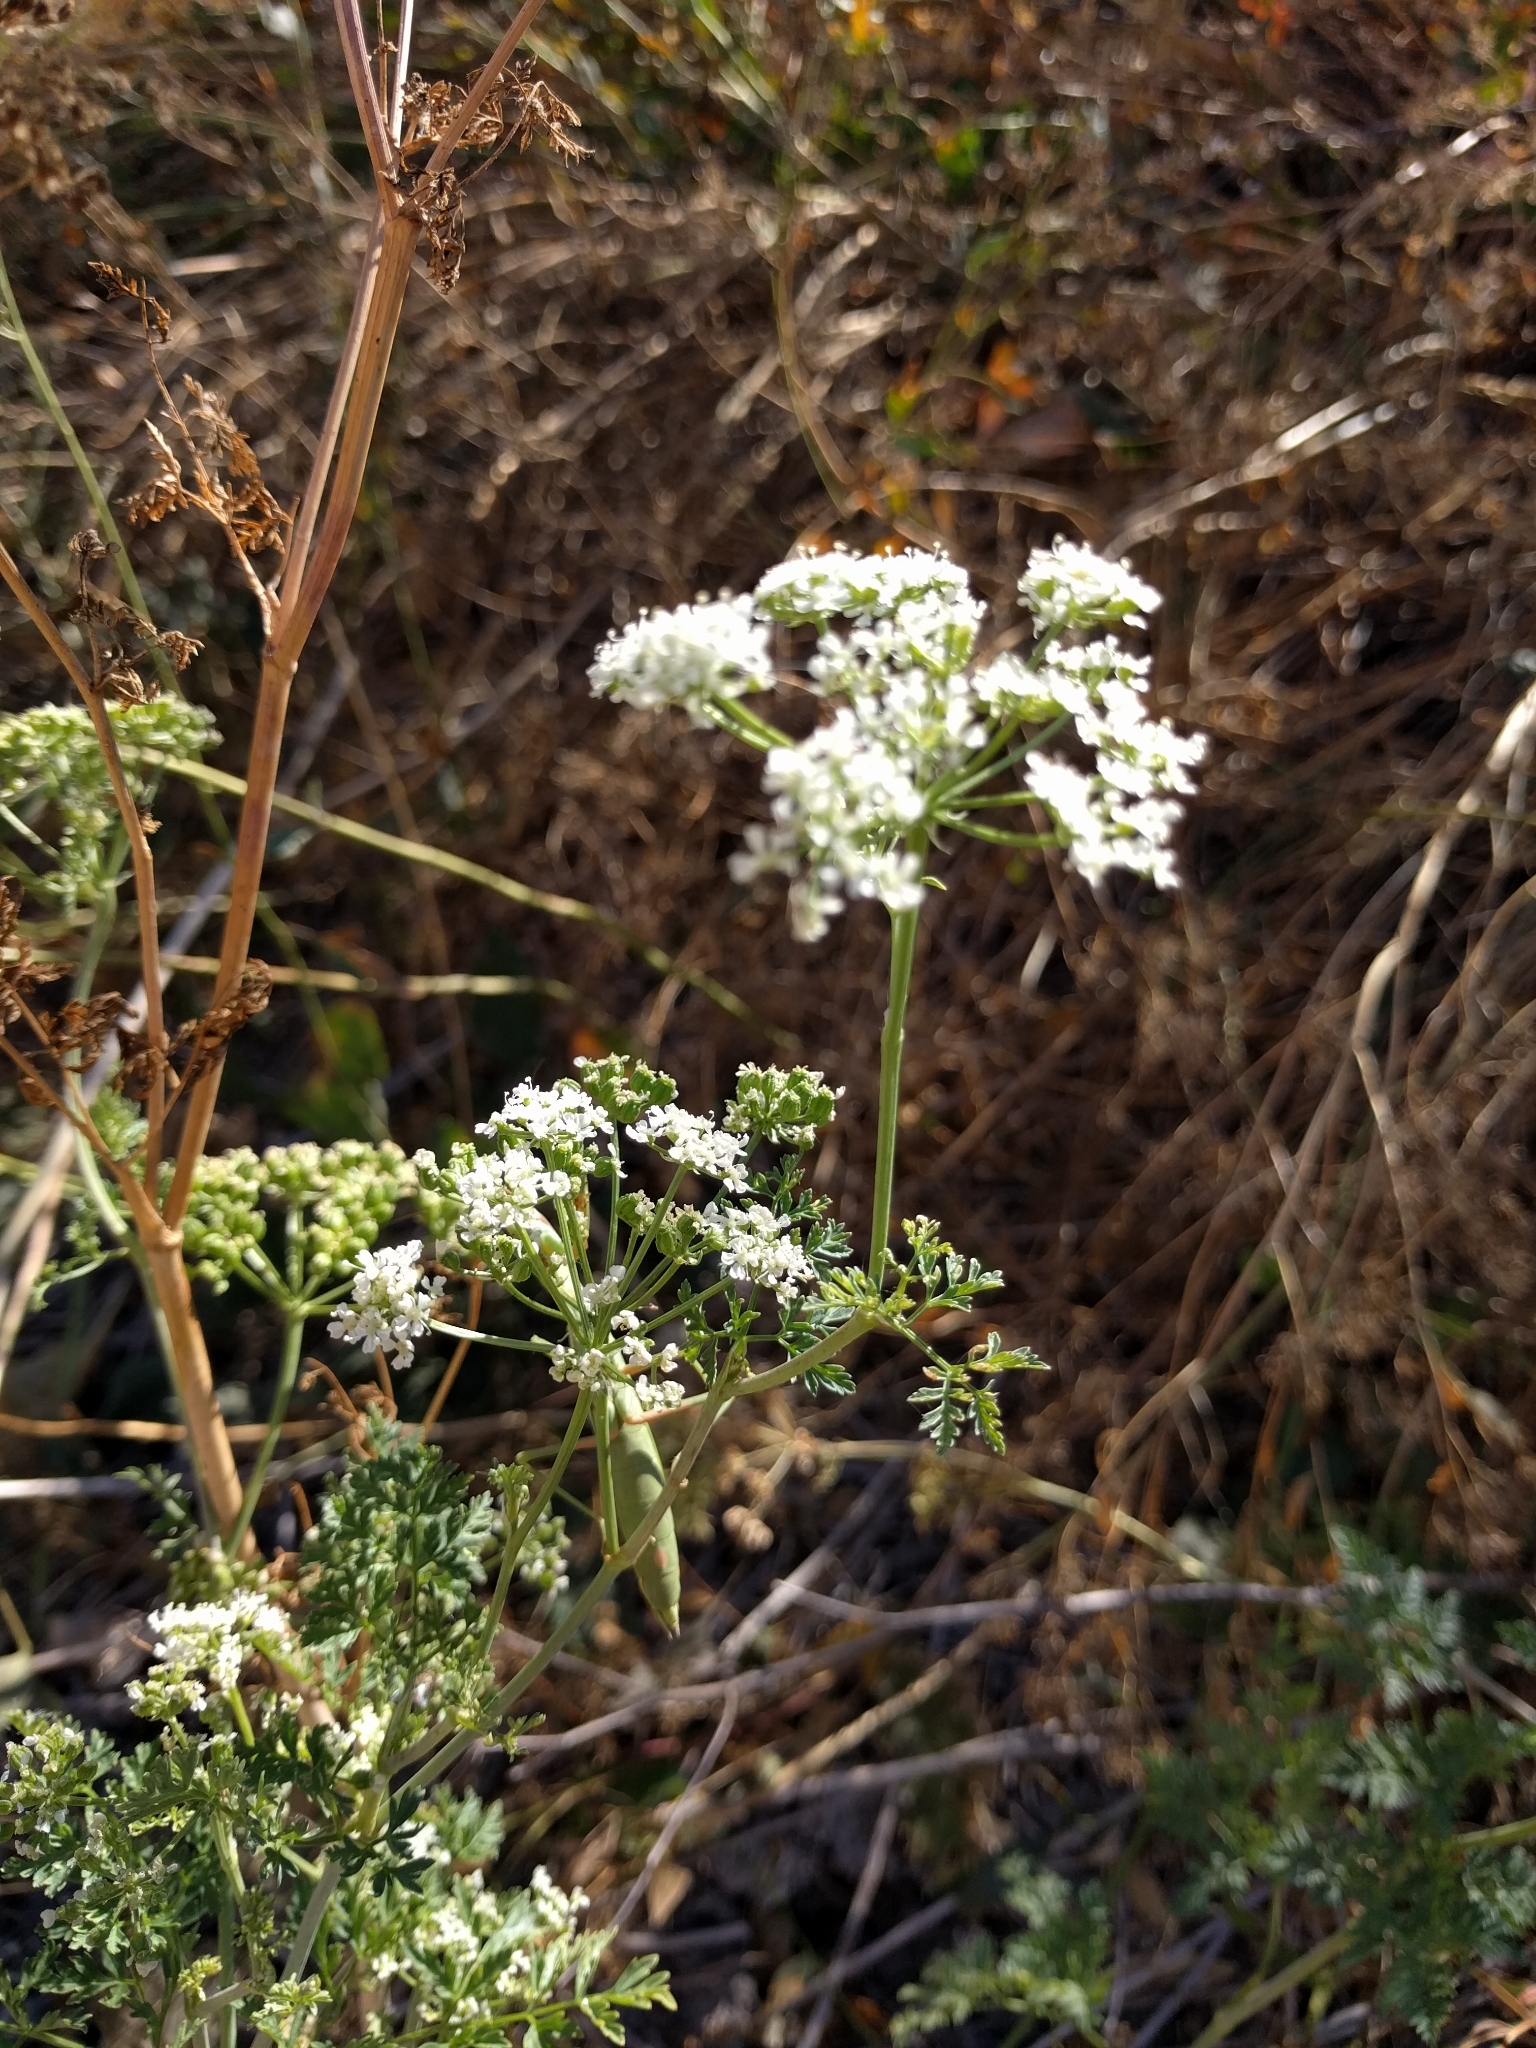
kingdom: Plantae
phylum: Tracheophyta
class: Magnoliopsida
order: Apiales
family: Apiaceae
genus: Conium
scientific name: Conium maculatum
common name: Hemlock
